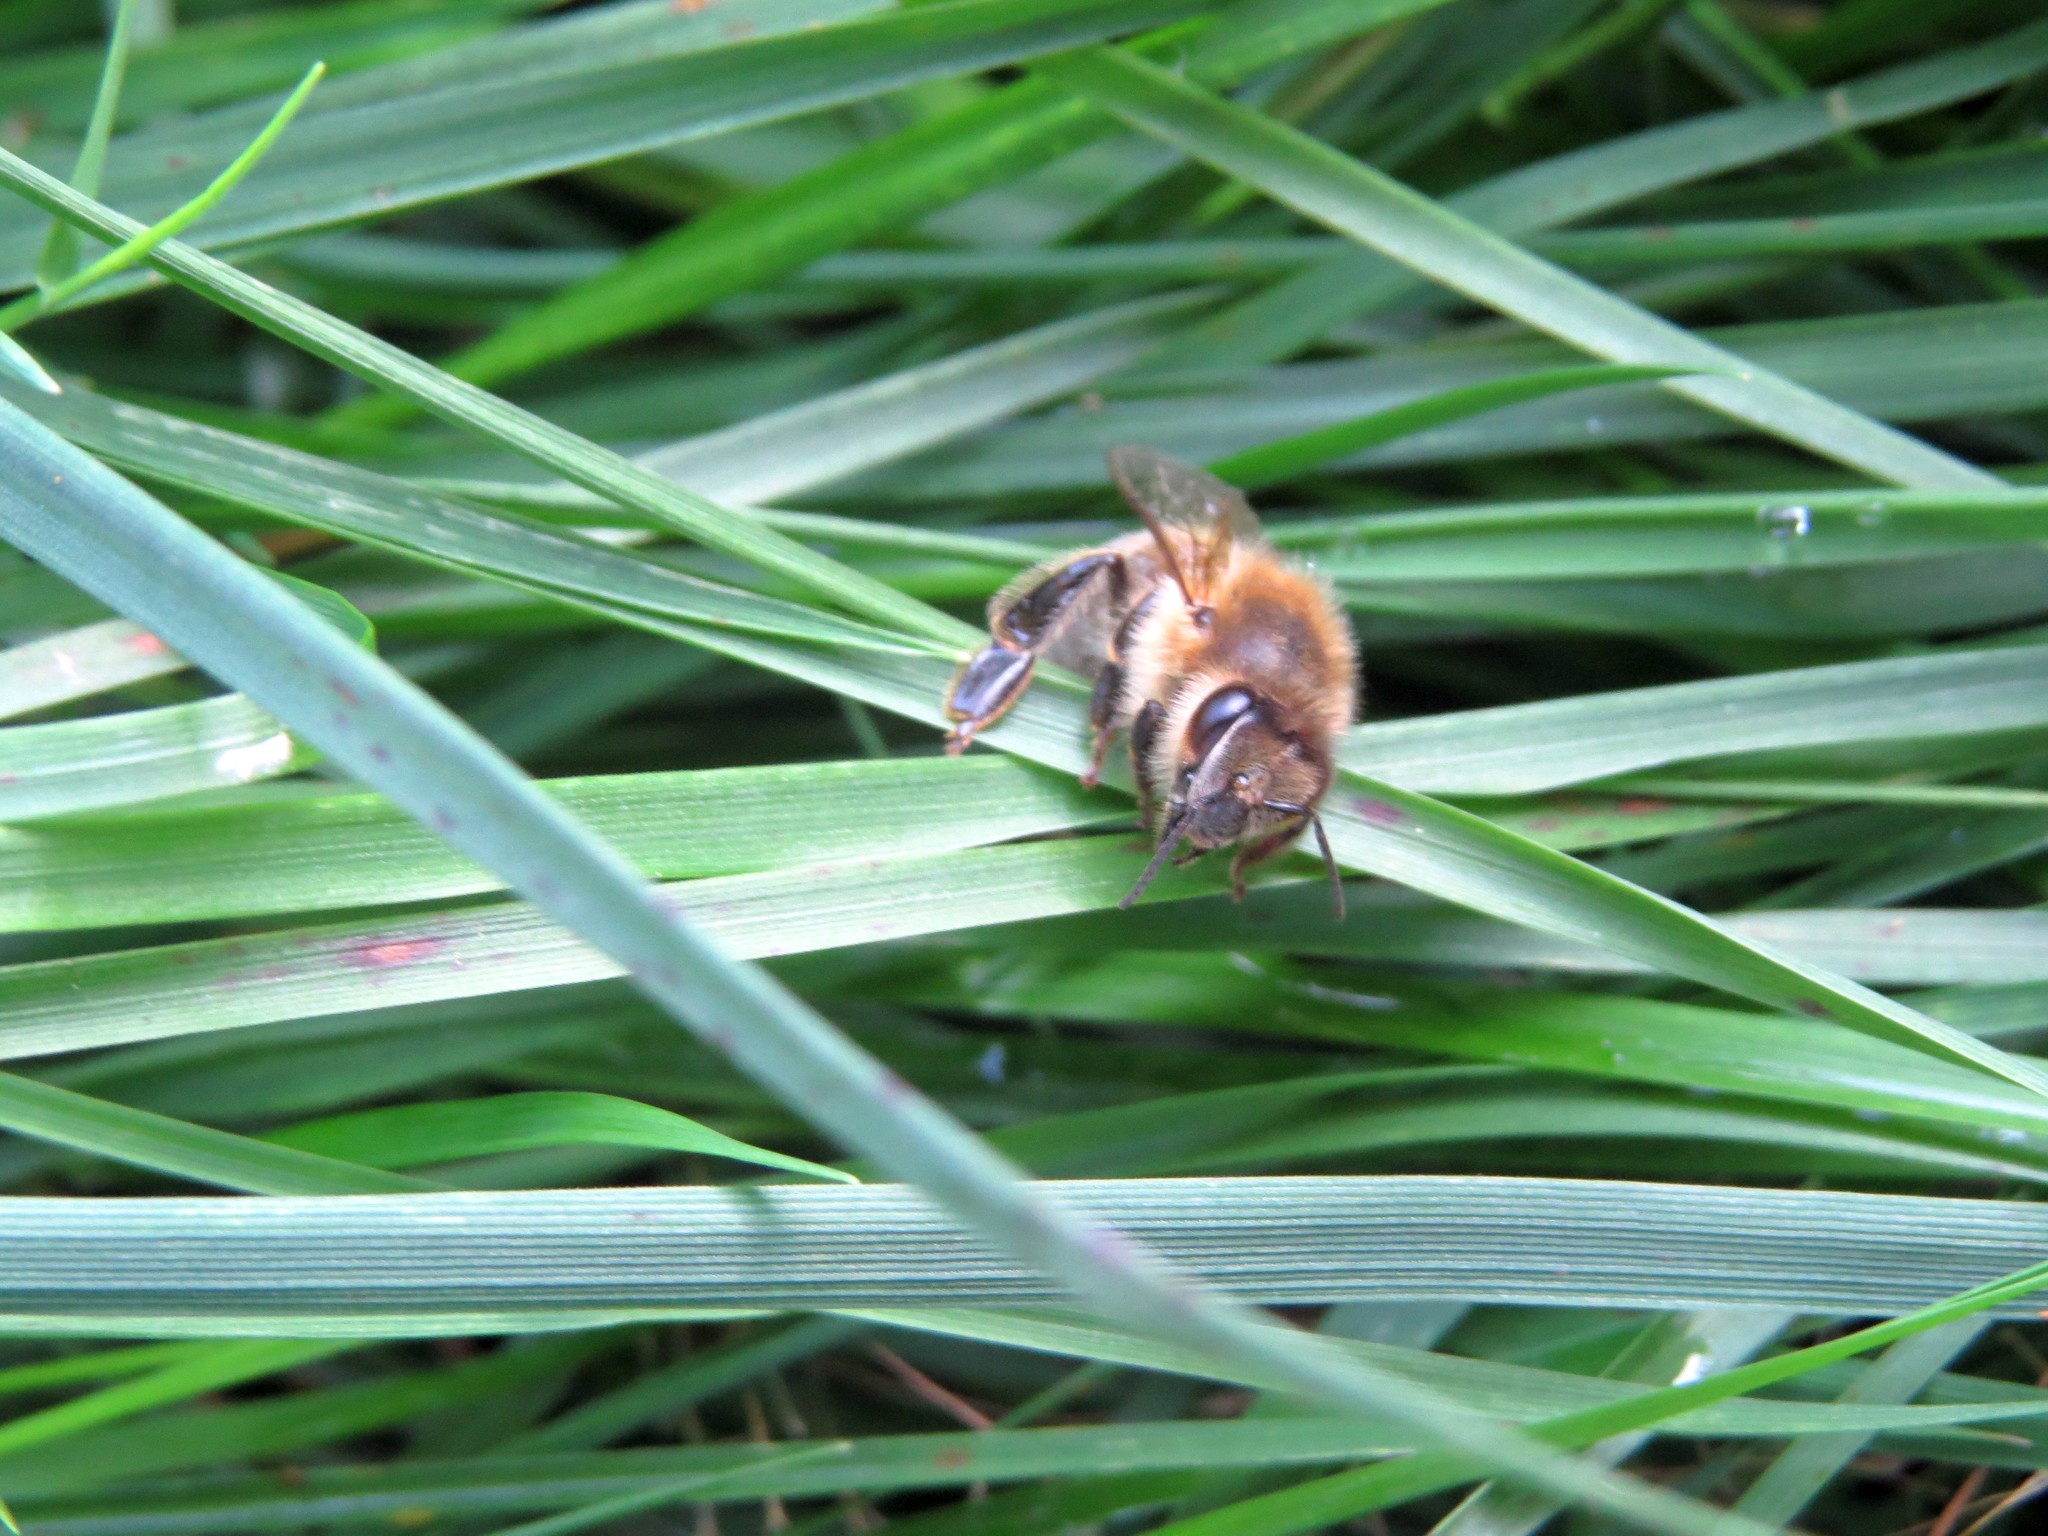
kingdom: Animalia
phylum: Arthropoda
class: Insecta
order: Hymenoptera
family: Apidae
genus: Apis
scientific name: Apis mellifera
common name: Honey bee
